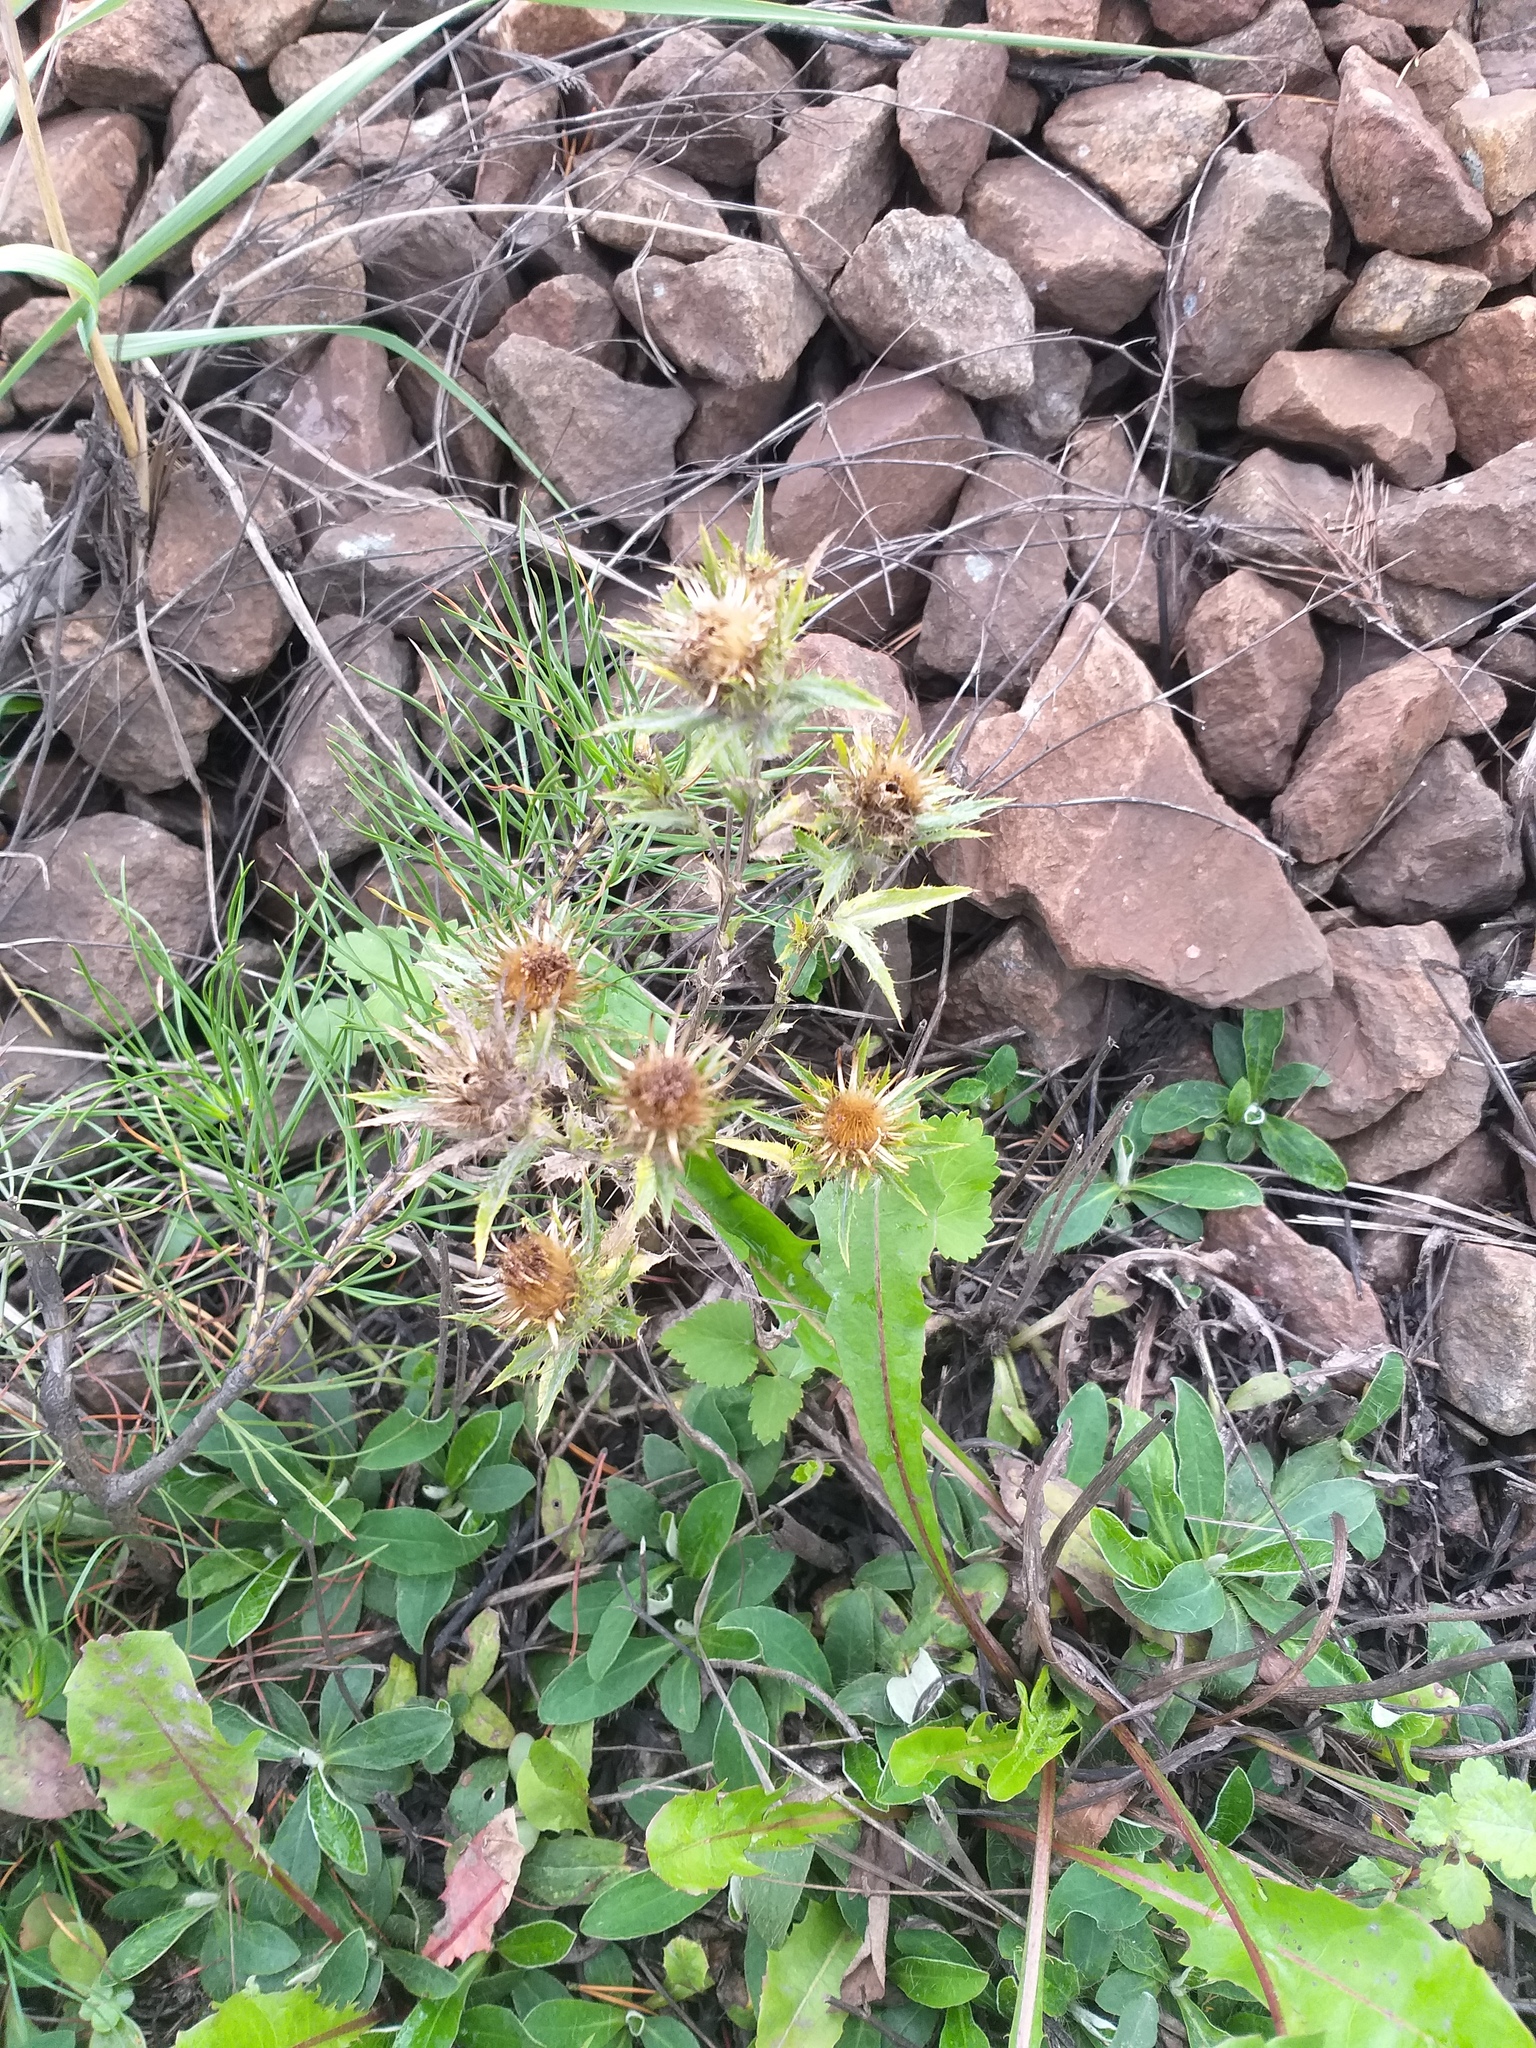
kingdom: Plantae
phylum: Tracheophyta
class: Magnoliopsida
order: Asterales
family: Asteraceae
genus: Carlina
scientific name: Carlina biebersteinii
